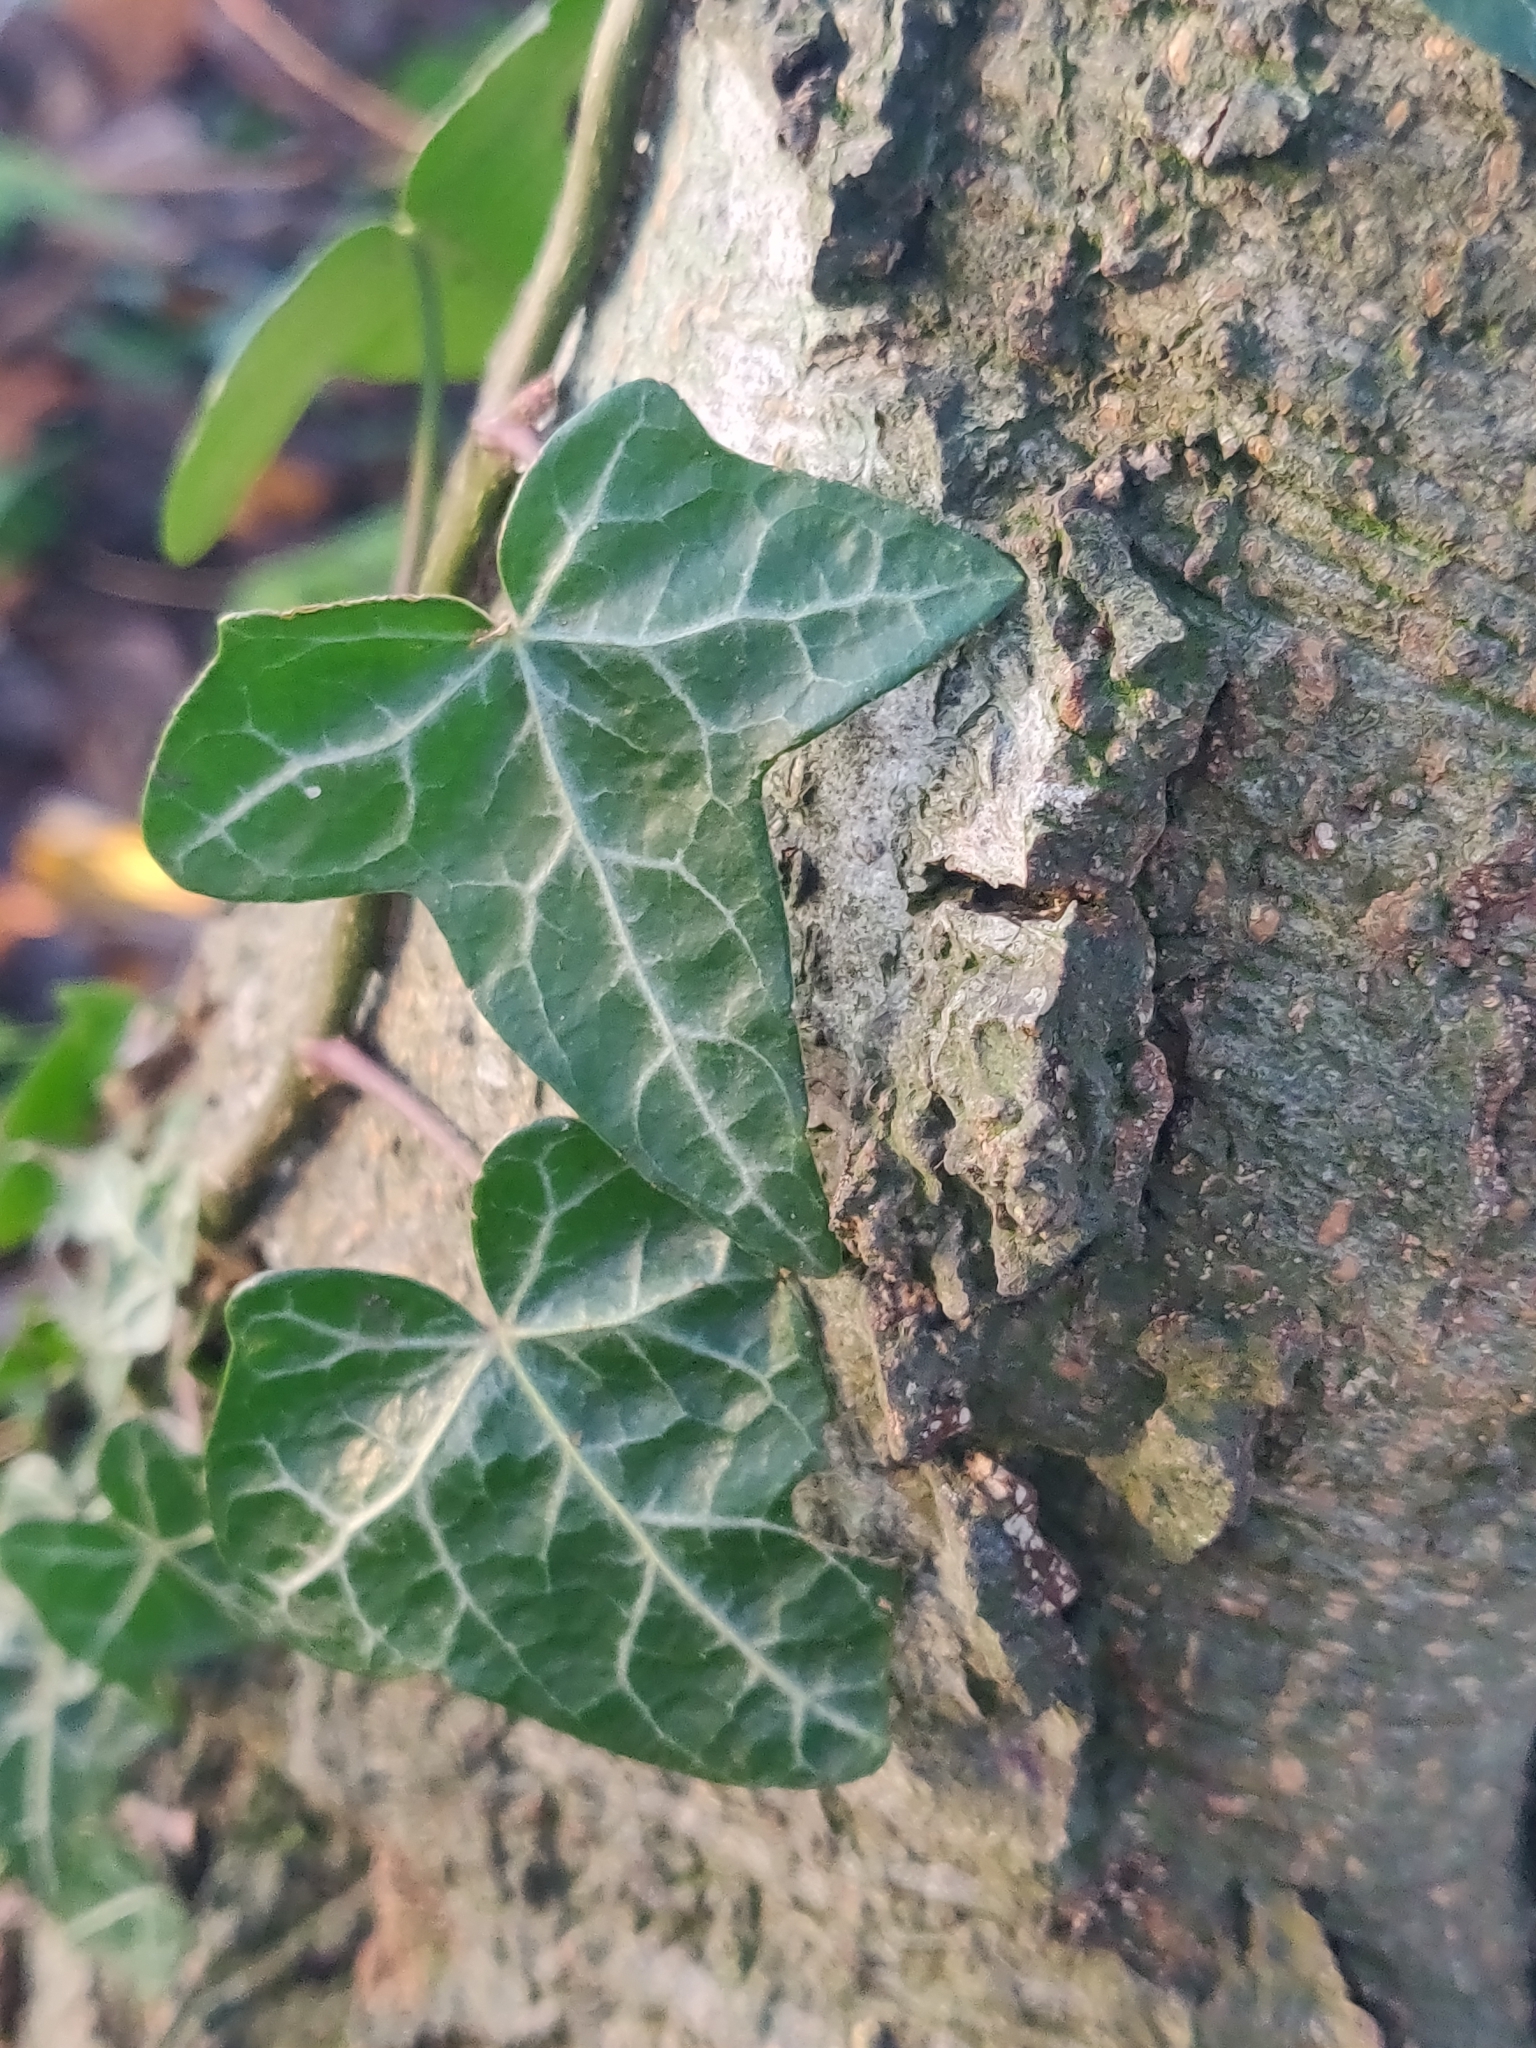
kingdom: Plantae
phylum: Tracheophyta
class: Magnoliopsida
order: Apiales
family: Araliaceae
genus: Hedera
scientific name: Hedera helix
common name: Ivy
